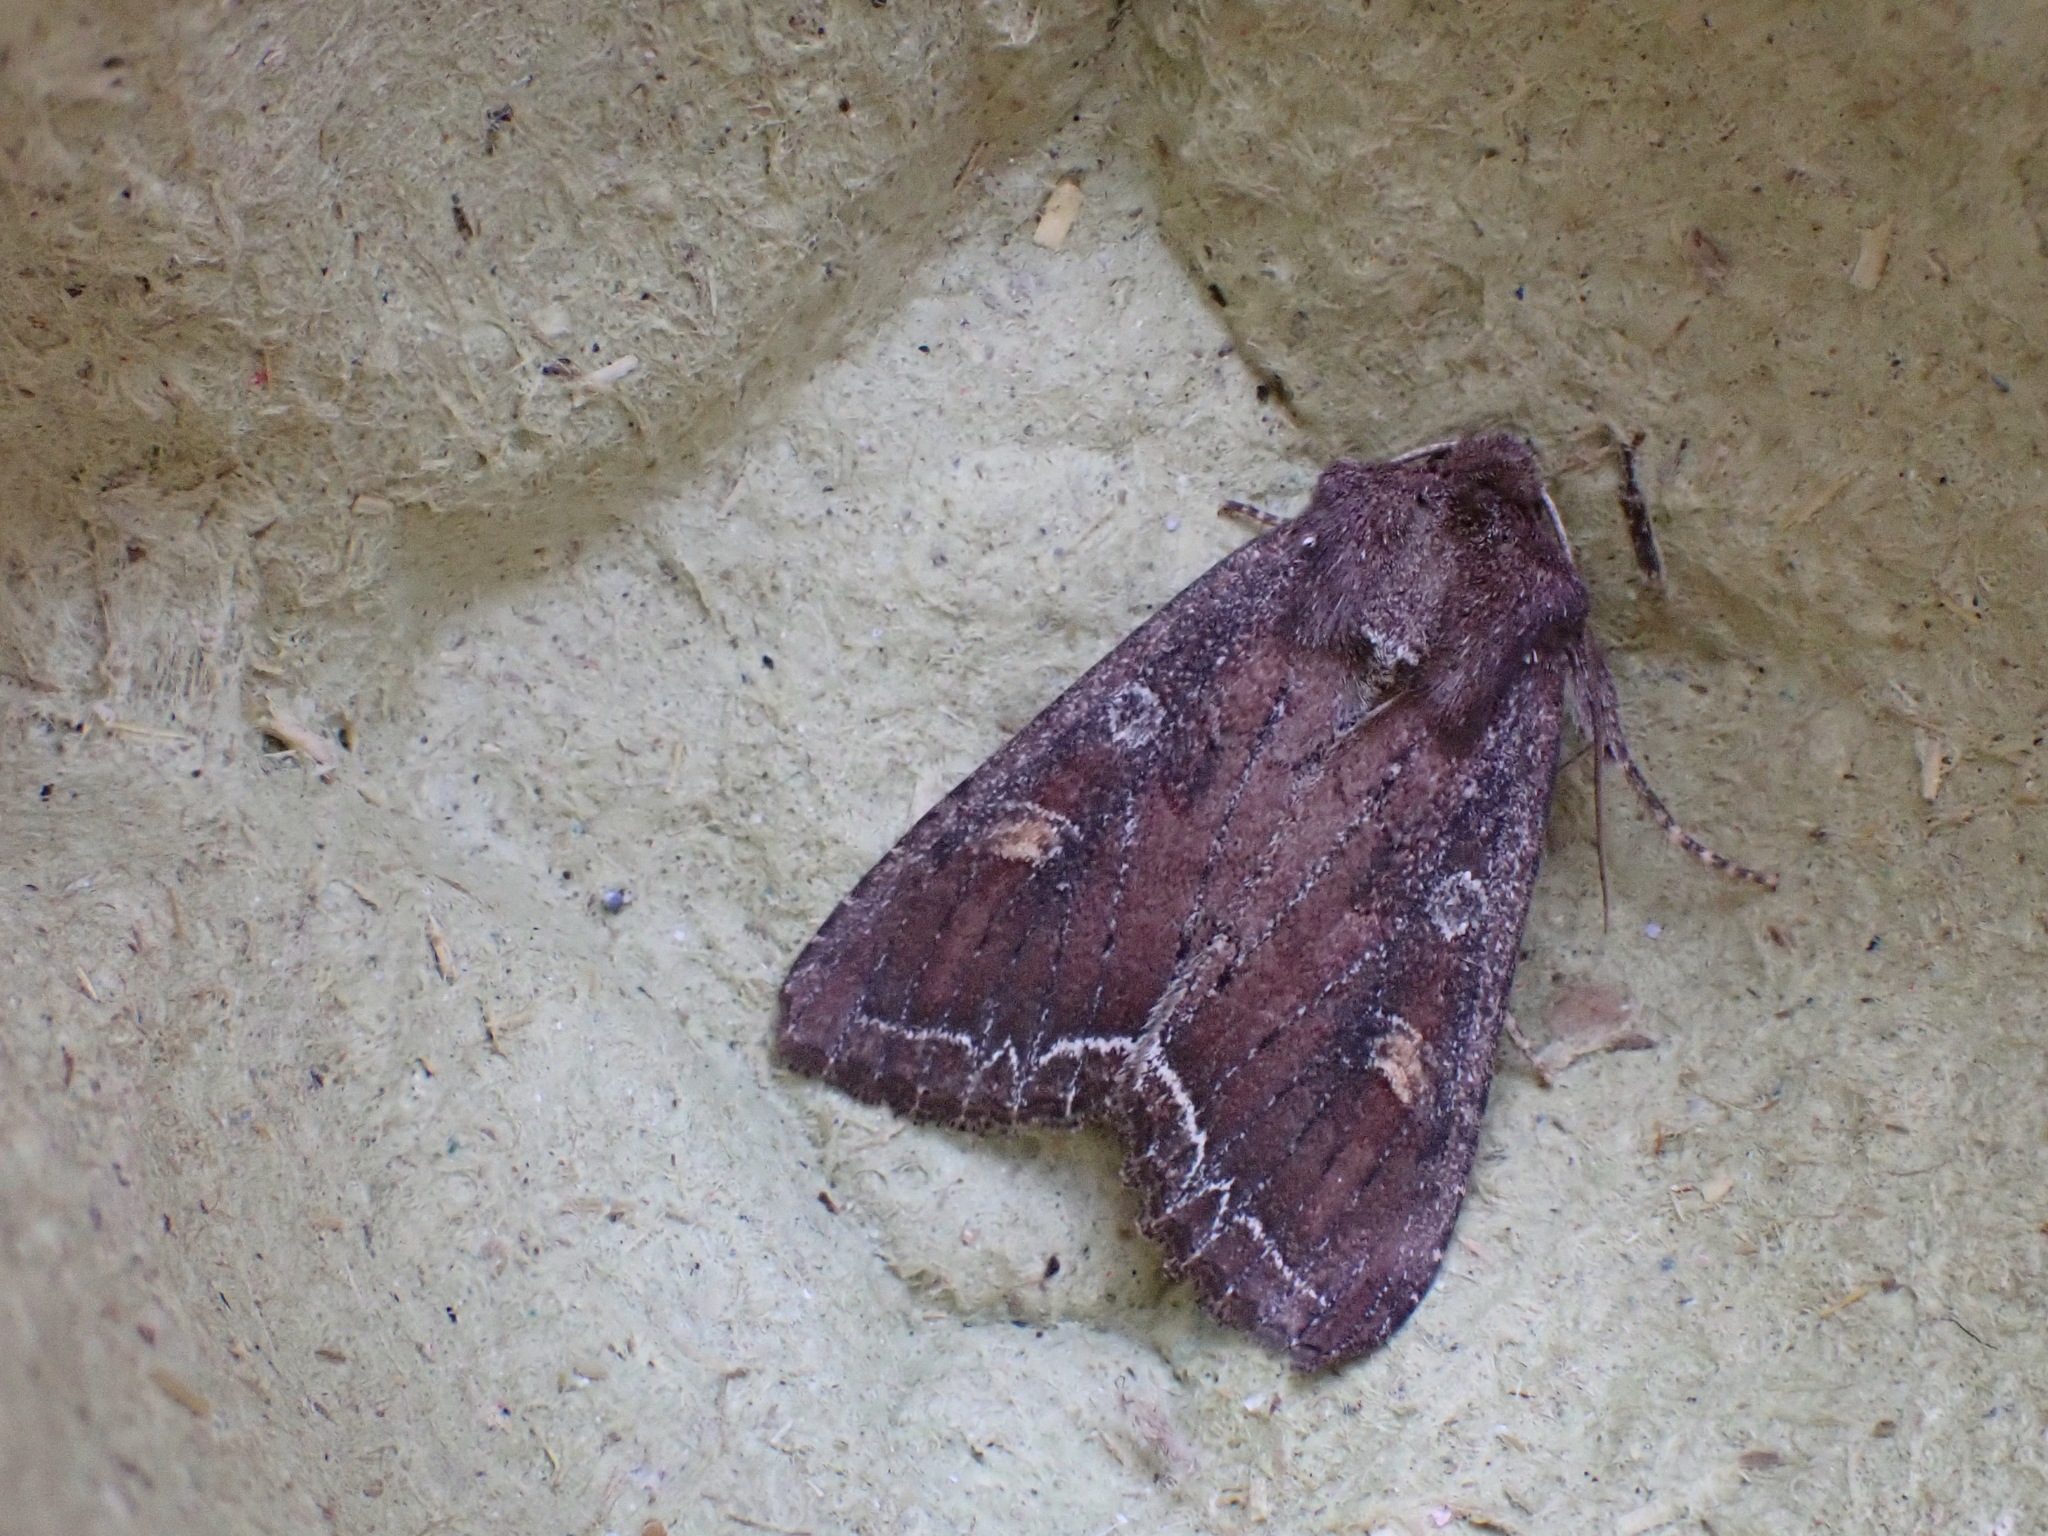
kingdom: Animalia
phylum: Arthropoda
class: Insecta
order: Lepidoptera
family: Noctuidae
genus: Lacanobia
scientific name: Lacanobia oleracea
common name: Bright-line brown-eye
